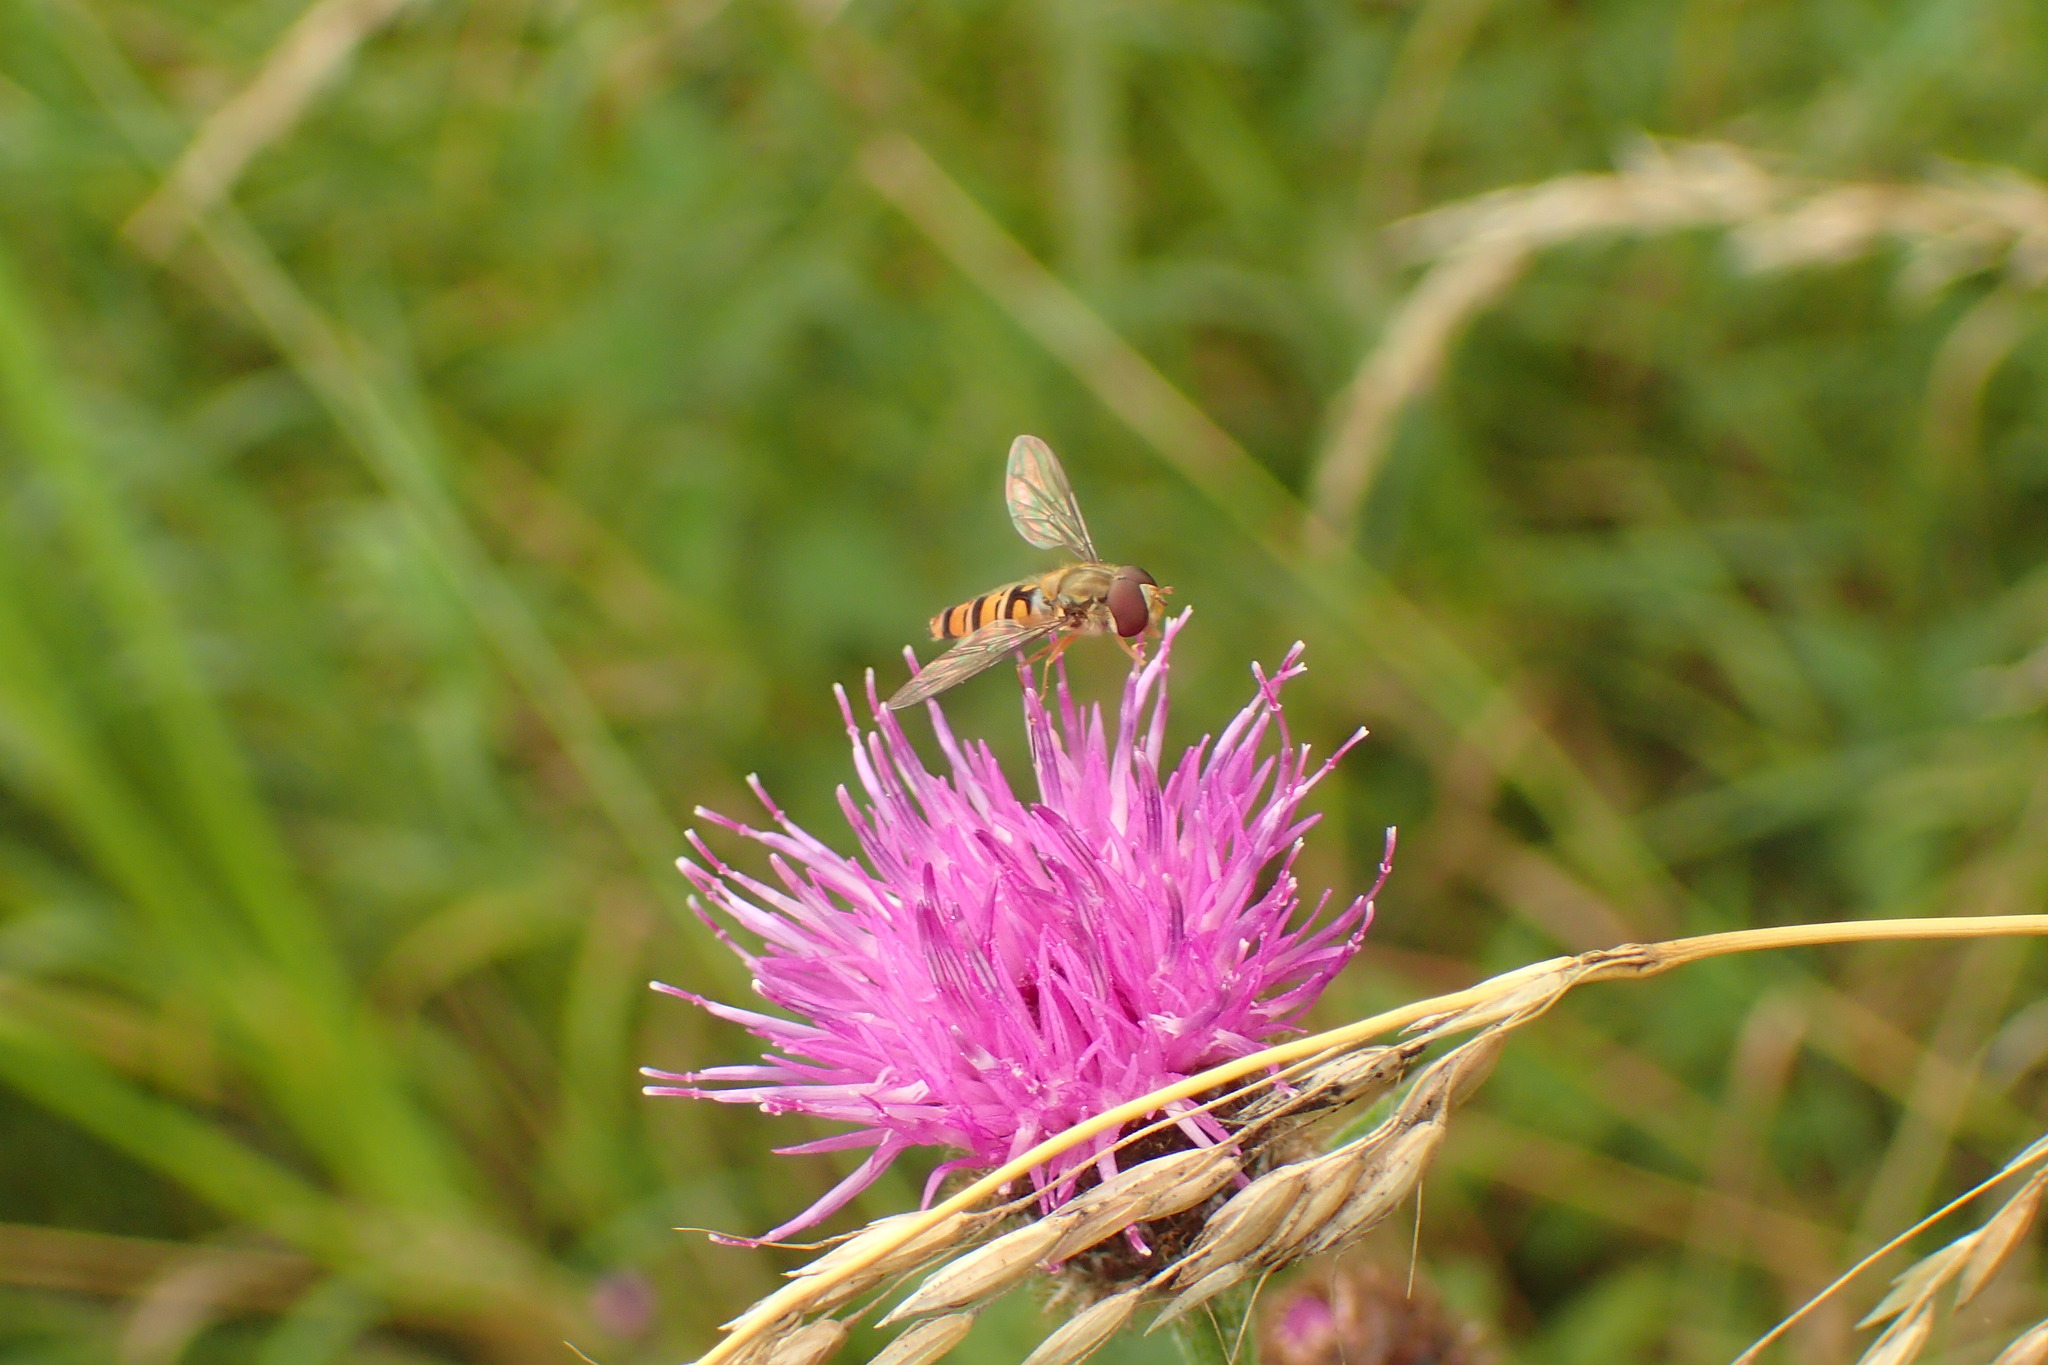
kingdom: Animalia
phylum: Arthropoda
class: Insecta
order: Diptera
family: Syrphidae
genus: Episyrphus
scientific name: Episyrphus balteatus
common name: Marmalade hoverfly
